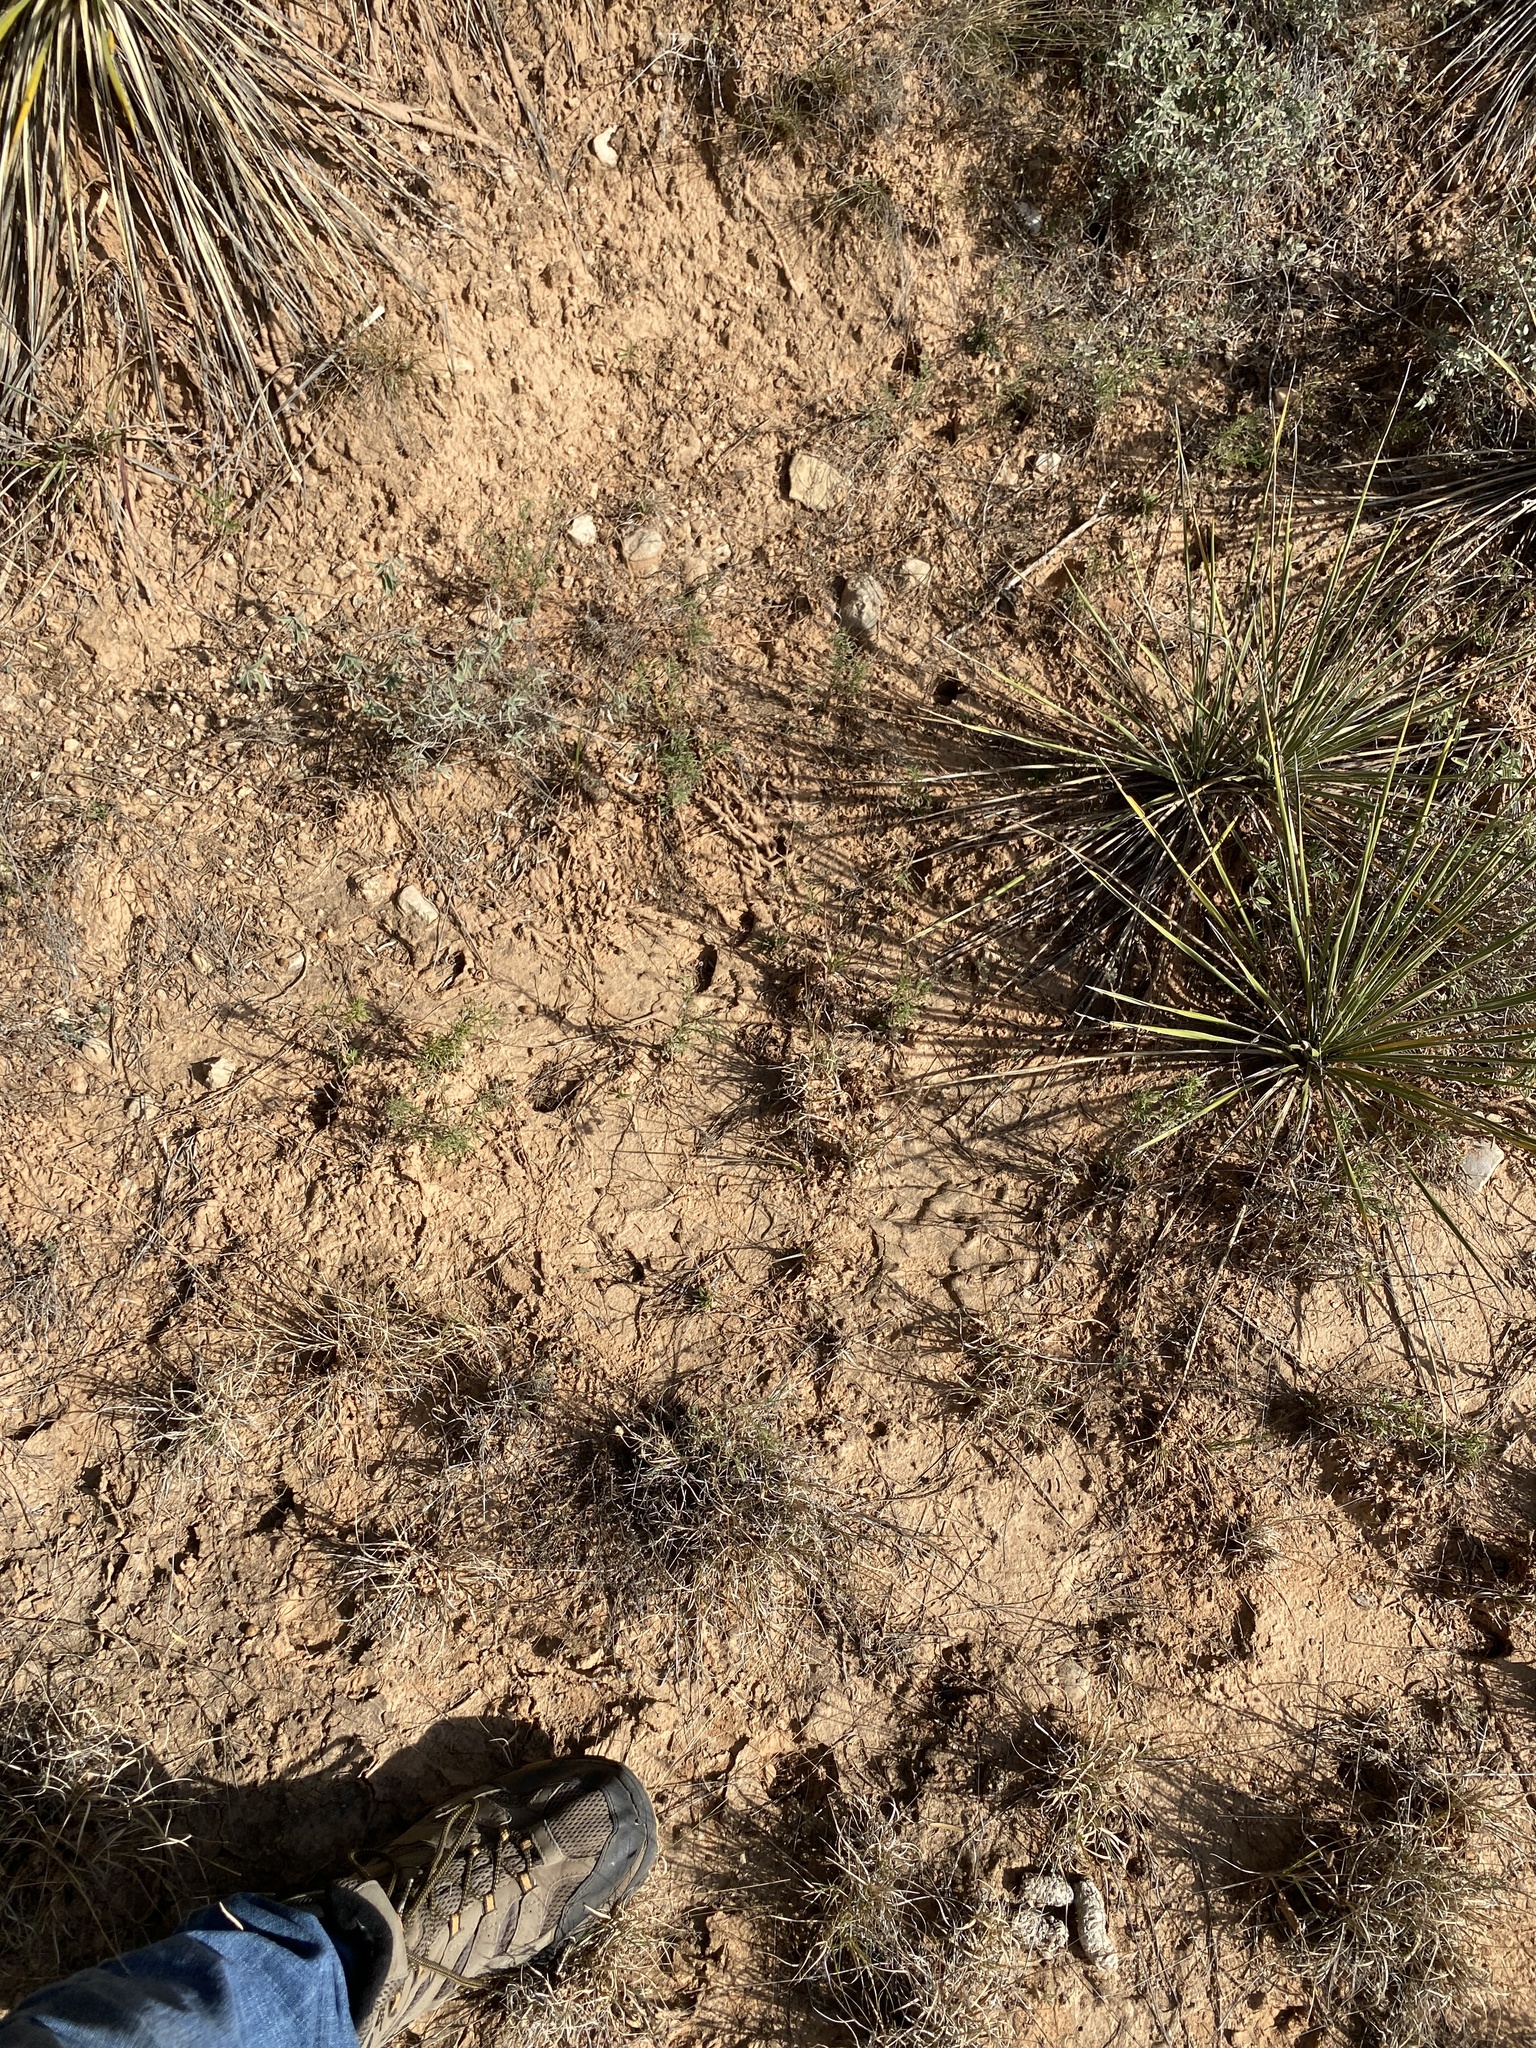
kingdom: Animalia
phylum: Chordata
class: Mammalia
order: Artiodactyla
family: Cervidae
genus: Odocoileus
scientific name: Odocoileus virginianus
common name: White-tailed deer
